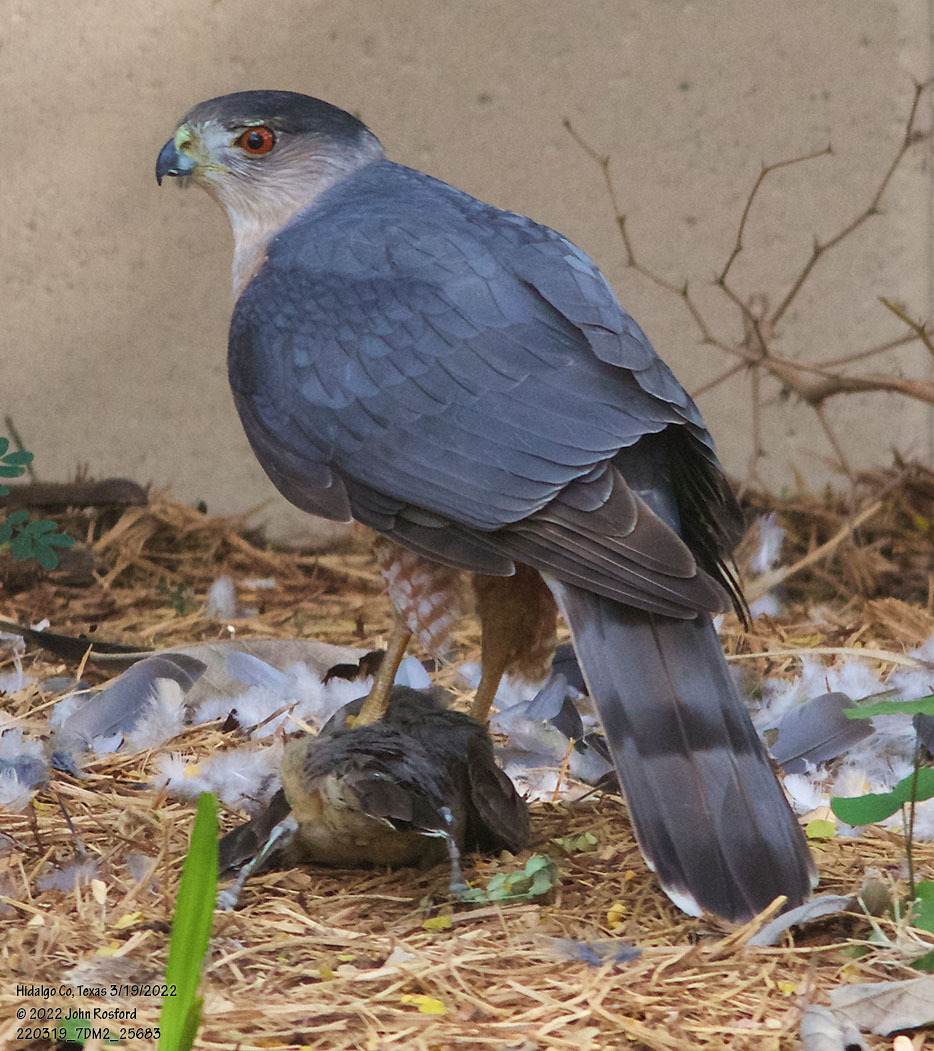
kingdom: Animalia
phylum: Chordata
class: Aves
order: Accipitriformes
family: Accipitridae
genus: Accipiter
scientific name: Accipiter cooperii
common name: Cooper's hawk
